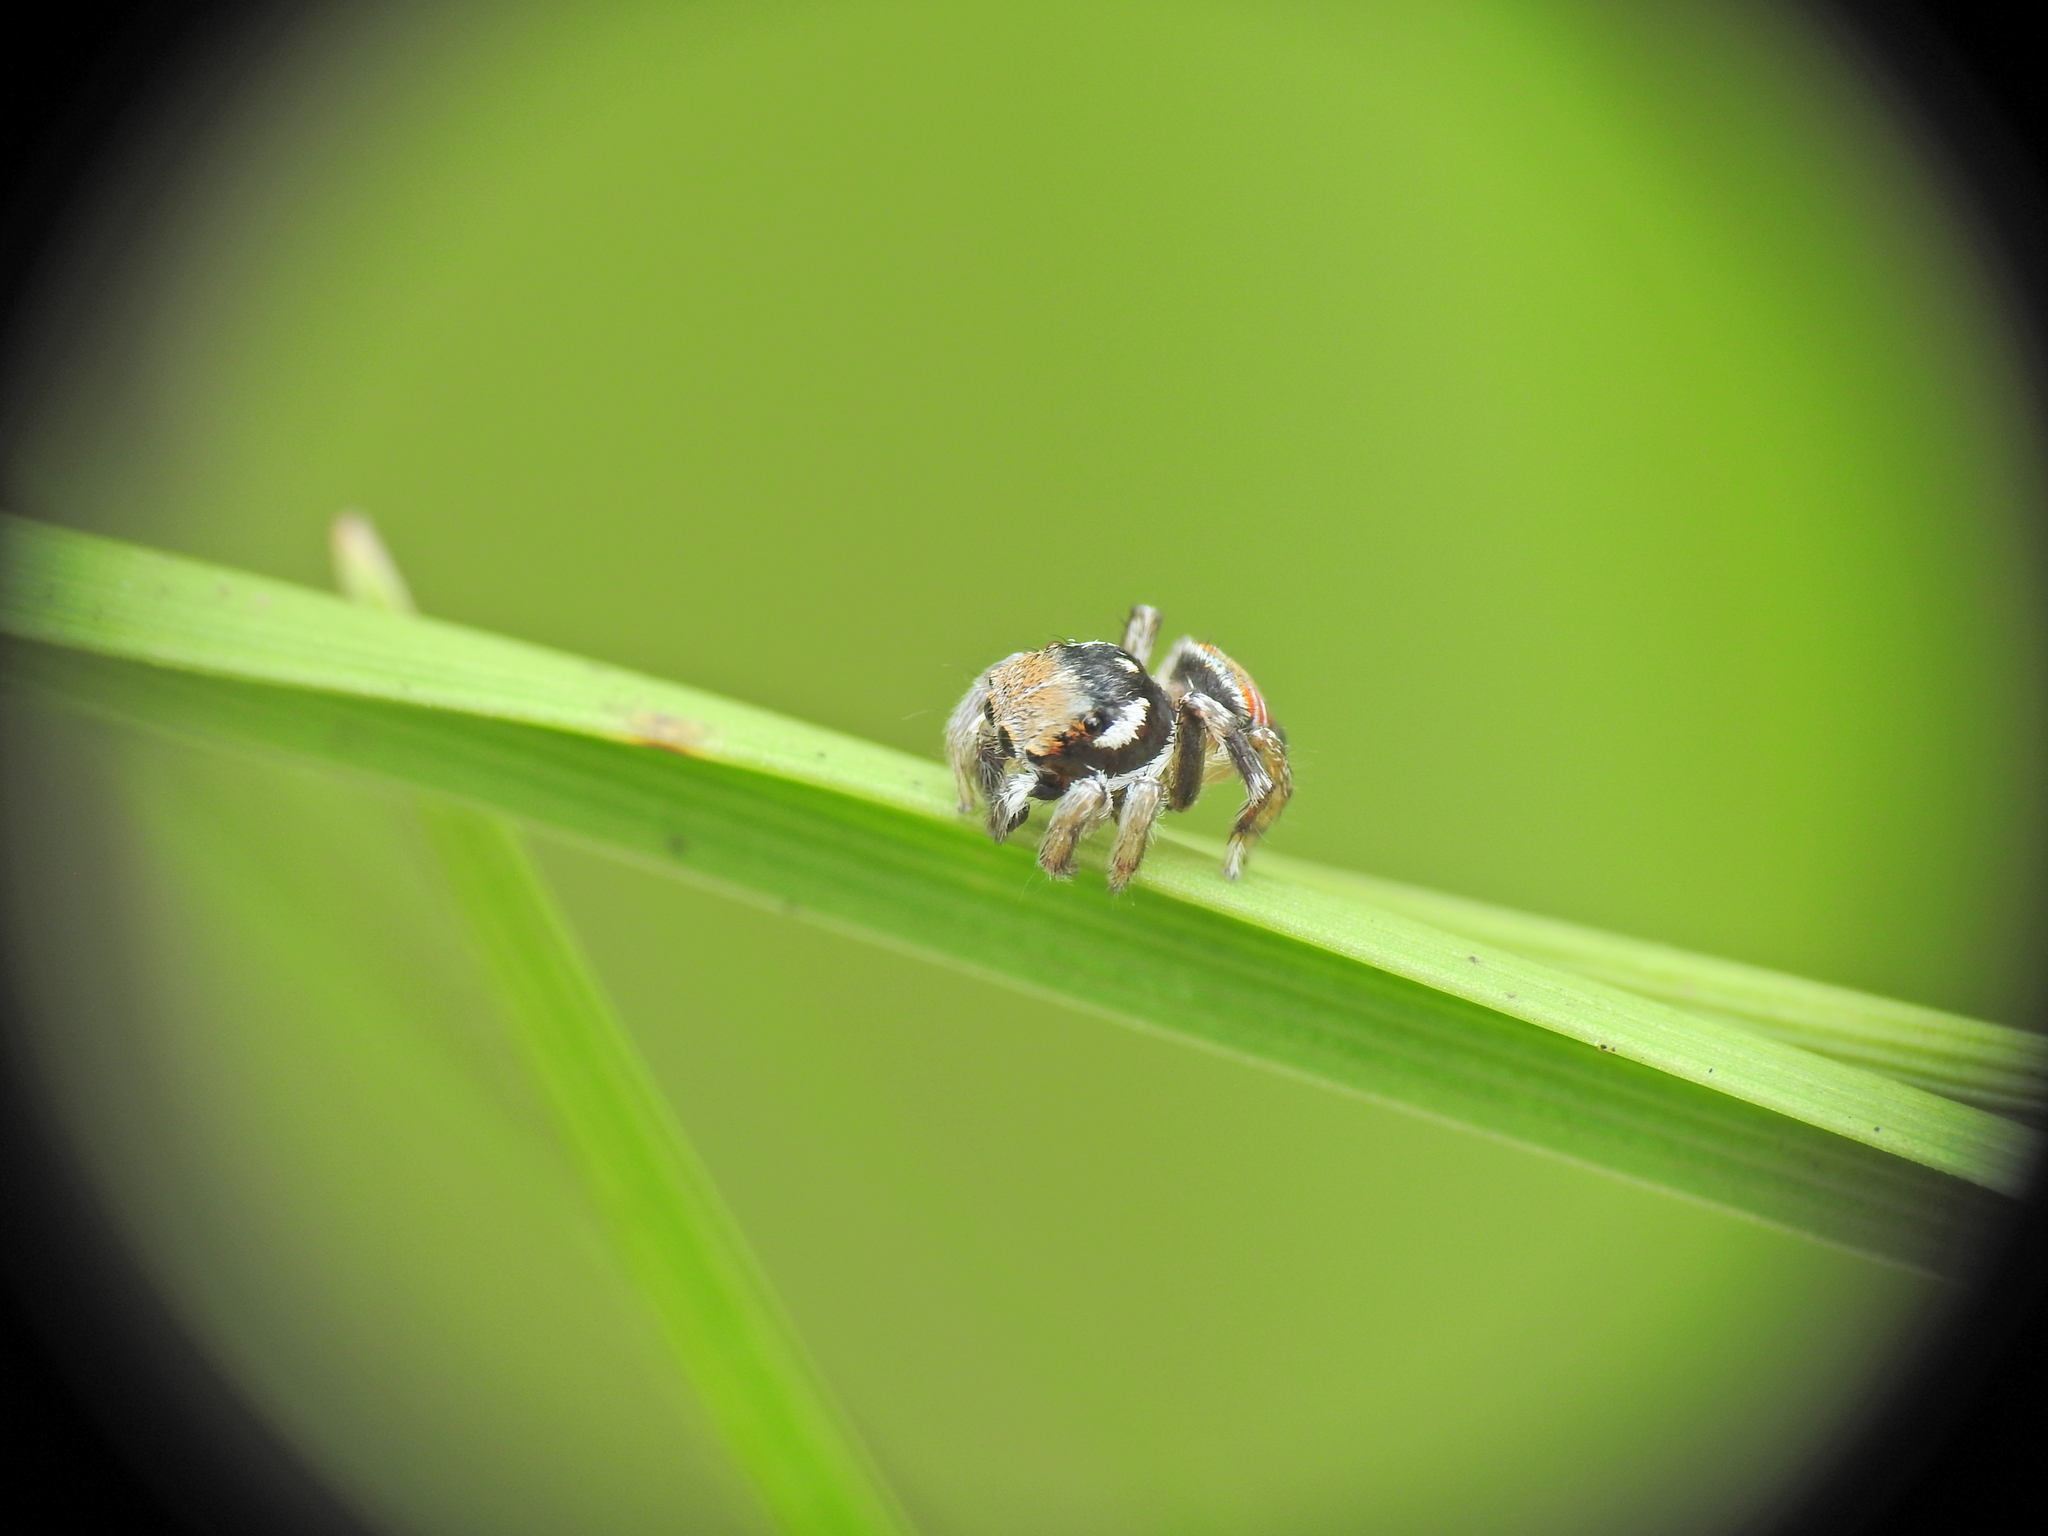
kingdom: Animalia
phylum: Arthropoda
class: Arachnida
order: Araneae
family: Salticidae
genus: Maratus
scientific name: Maratus ottoi
